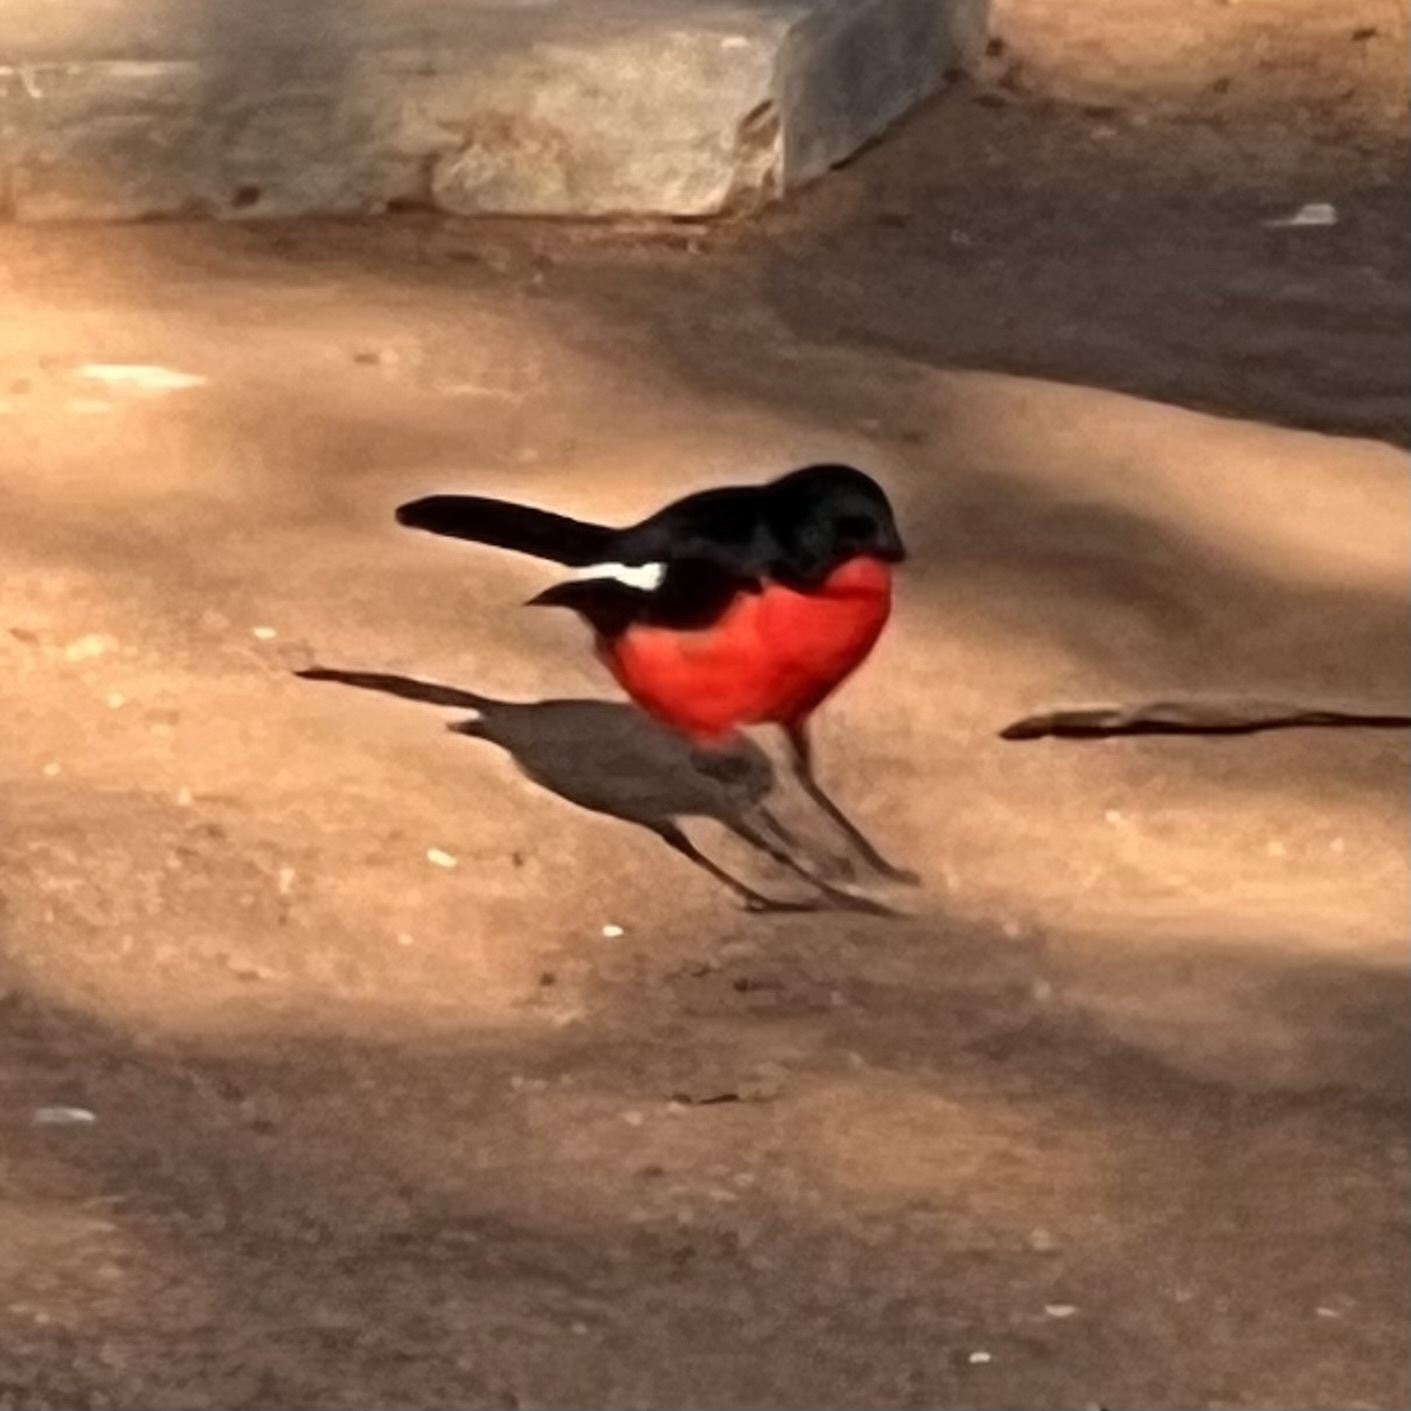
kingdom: Animalia
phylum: Chordata
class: Aves
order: Passeriformes
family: Malaconotidae
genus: Laniarius
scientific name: Laniarius atrococcineus
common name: Crimson-breasted shrike
